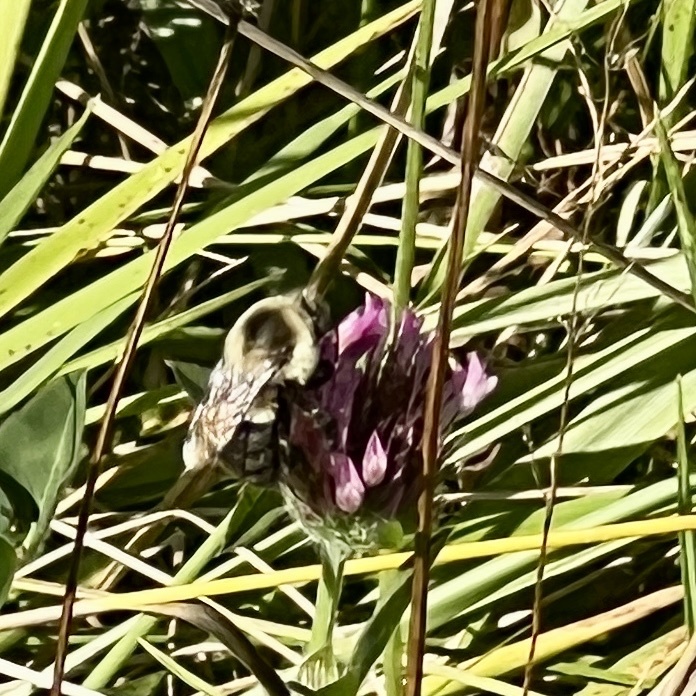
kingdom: Animalia
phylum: Arthropoda
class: Insecta
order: Hymenoptera
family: Apidae
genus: Bombus
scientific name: Bombus impatiens
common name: Common eastern bumble bee
